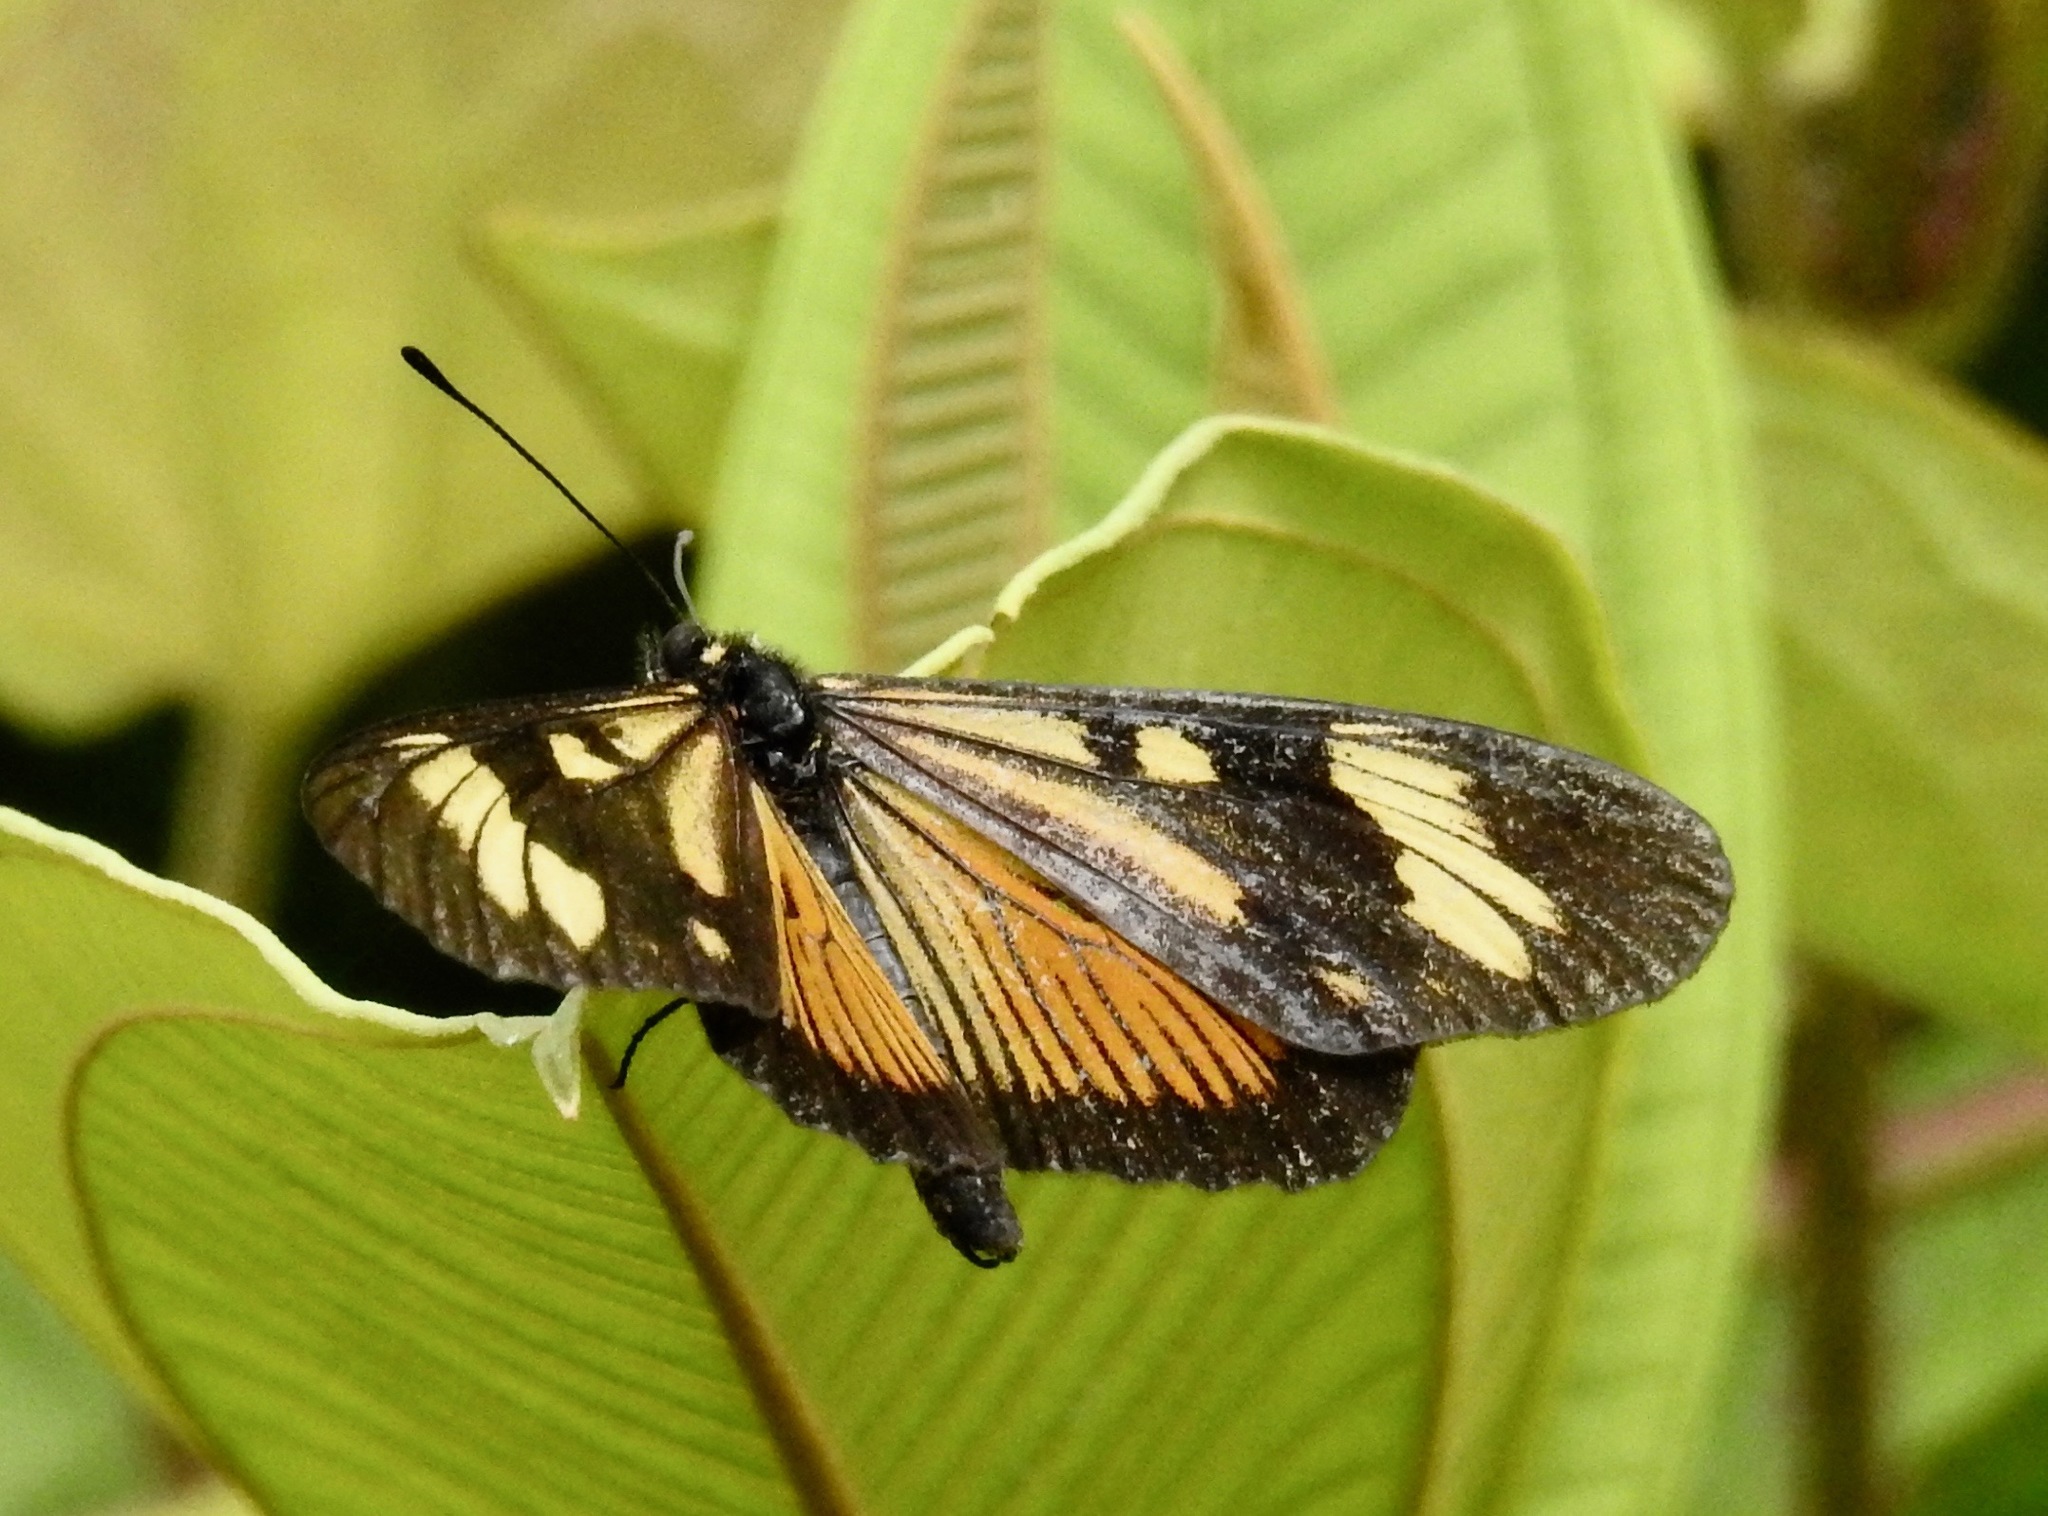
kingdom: Animalia
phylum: Arthropoda
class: Insecta
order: Lepidoptera
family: Nymphalidae
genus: Actinote
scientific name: Actinote anteas
